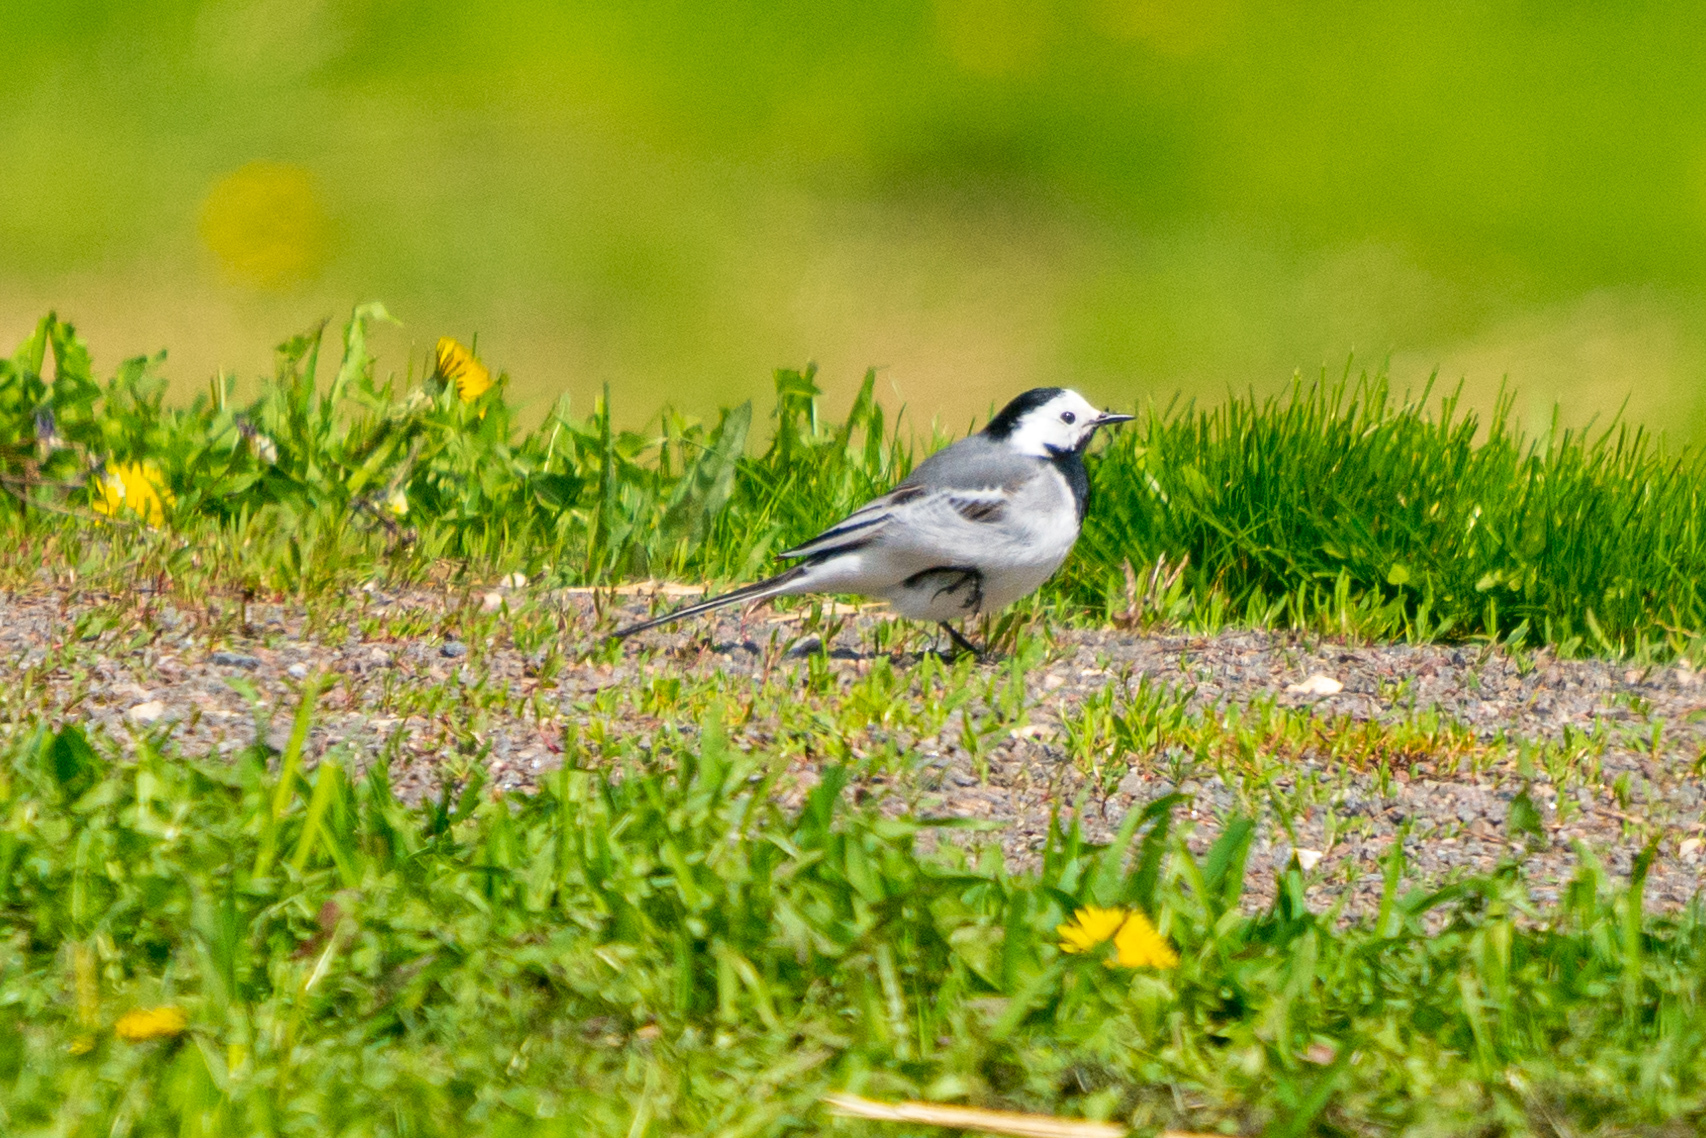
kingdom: Animalia
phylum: Chordata
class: Aves
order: Passeriformes
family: Motacillidae
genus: Motacilla
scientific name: Motacilla alba
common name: White wagtail
